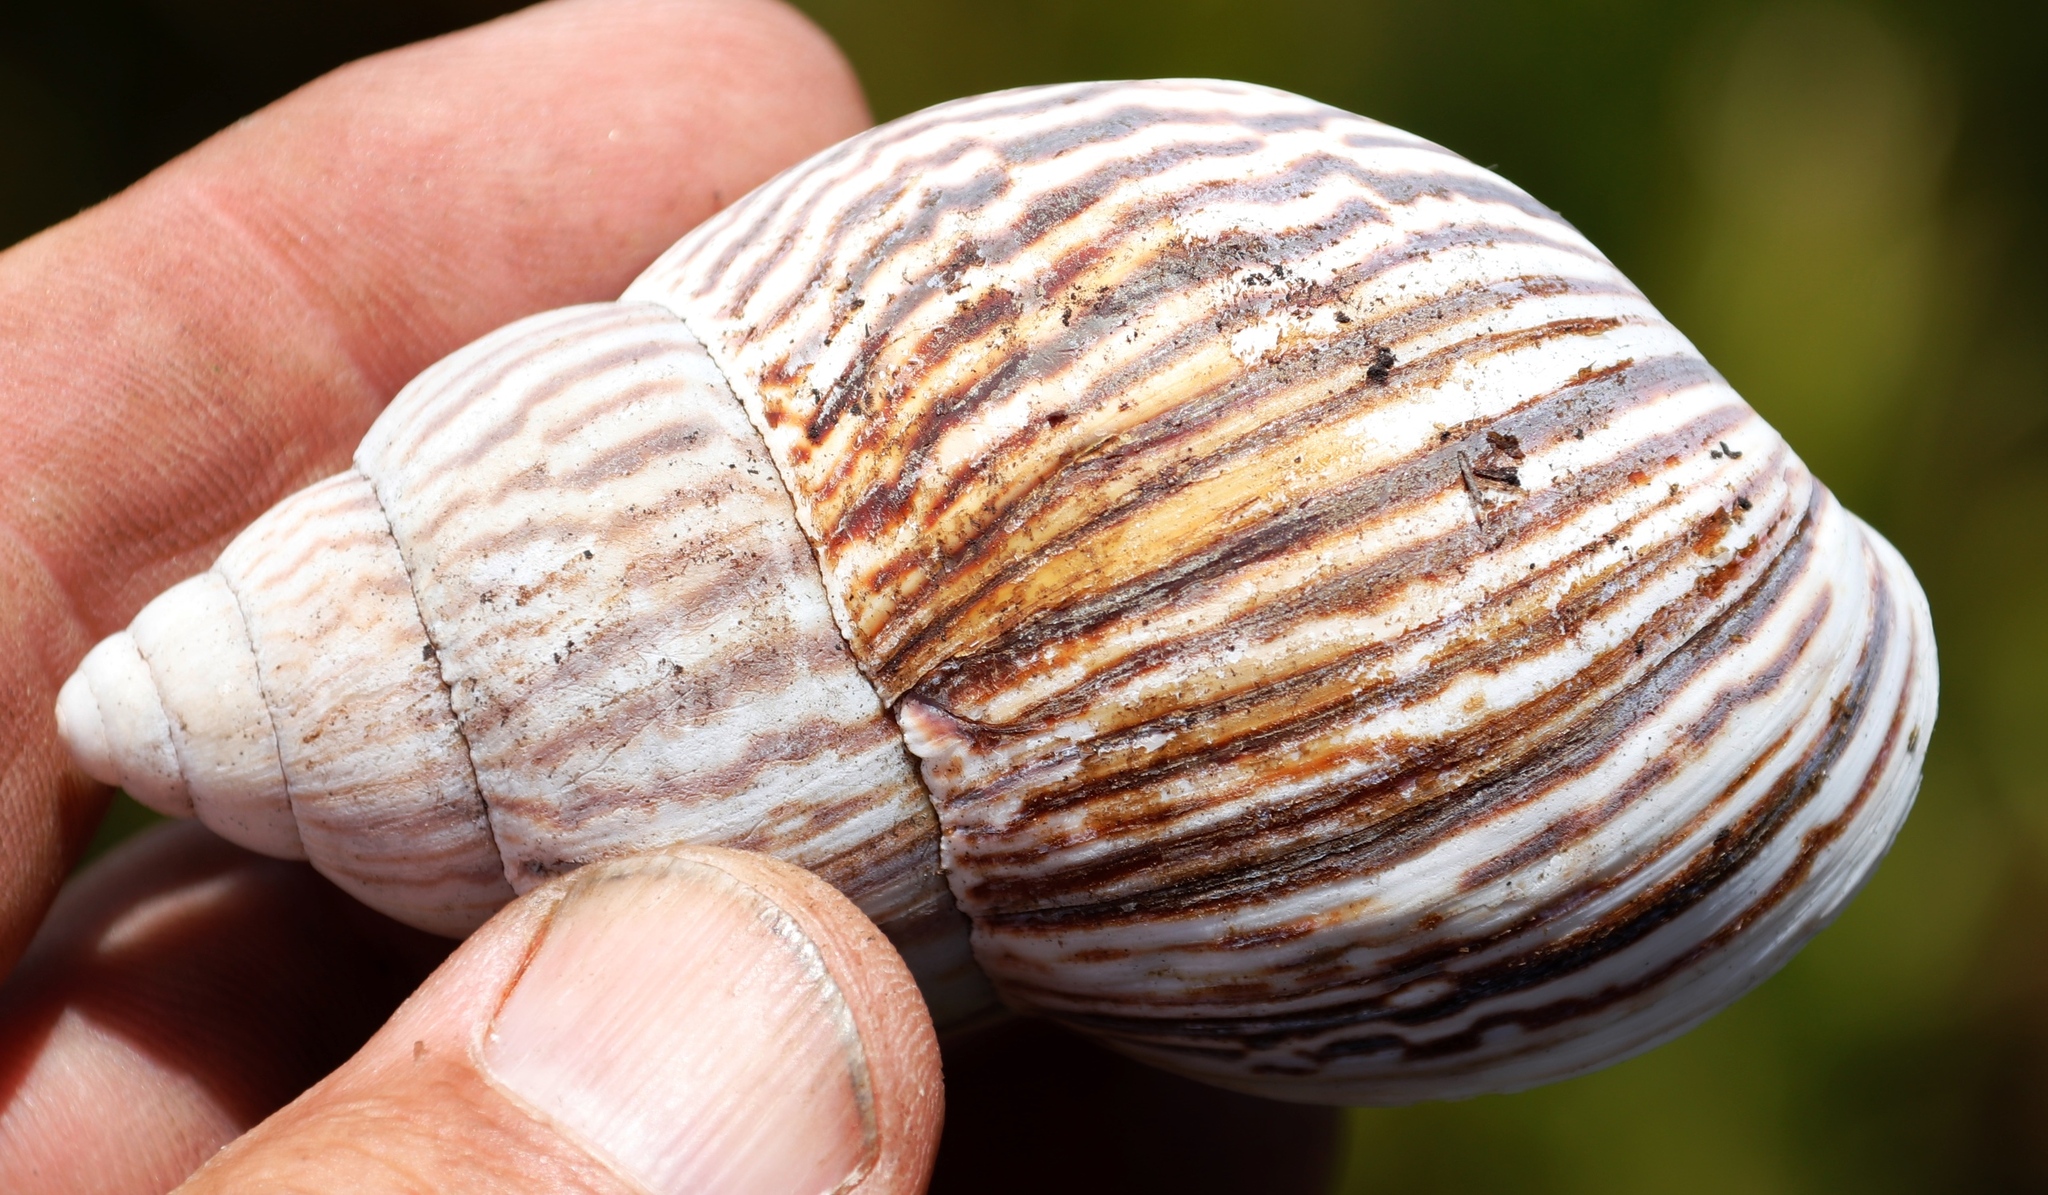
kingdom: Animalia
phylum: Mollusca
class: Gastropoda
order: Stylommatophora
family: Achatinidae
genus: Cochlitoma
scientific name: Cochlitoma zebra
